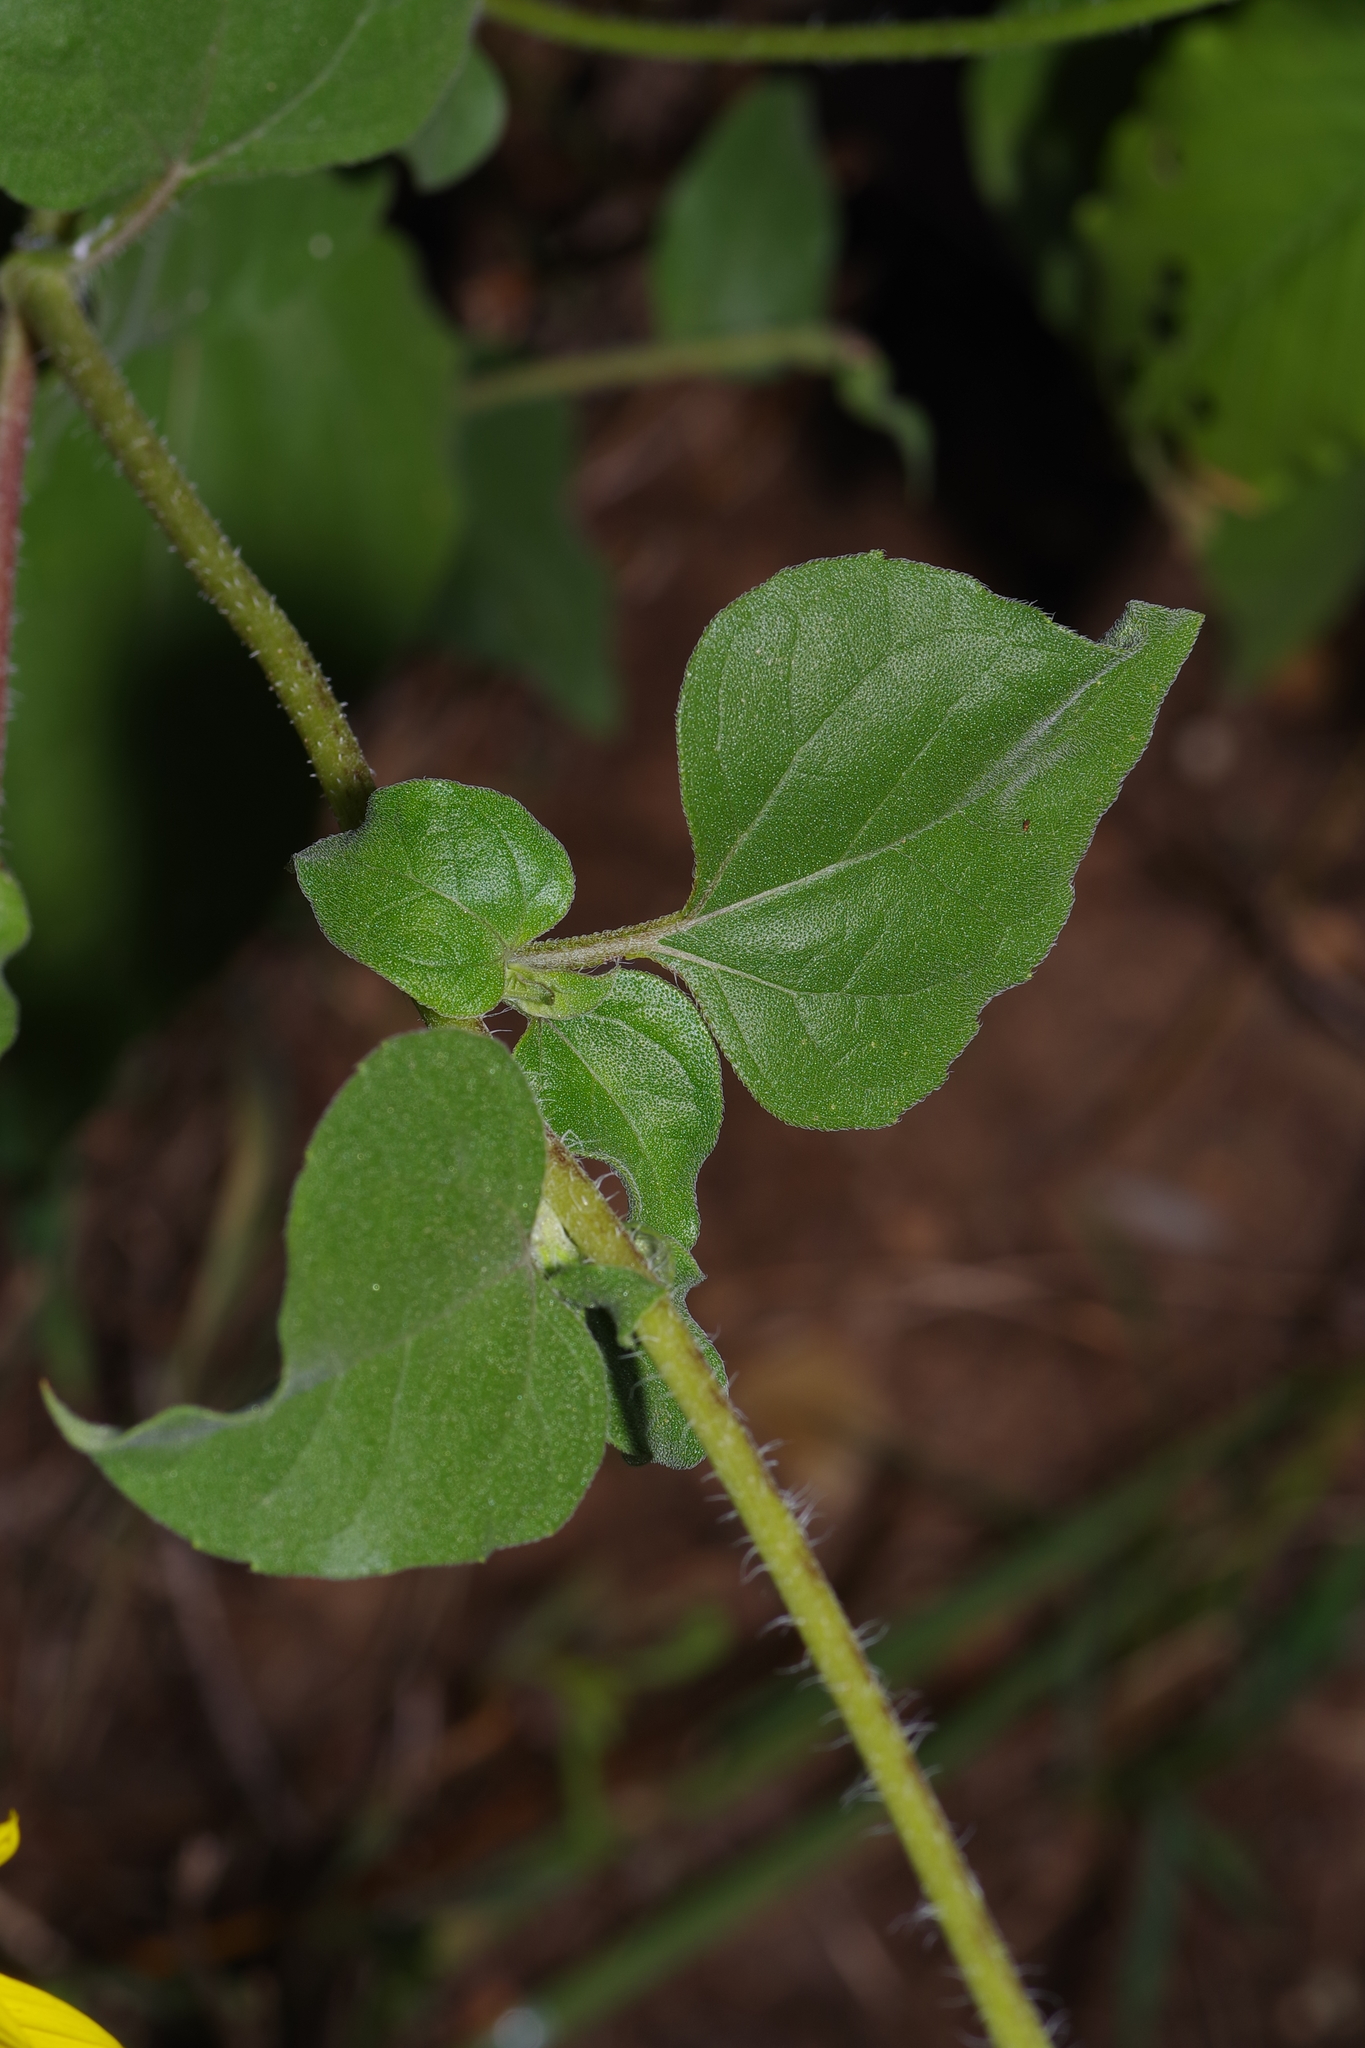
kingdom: Plantae
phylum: Tracheophyta
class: Magnoliopsida
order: Asterales
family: Asteraceae
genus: Helianthus
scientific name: Helianthus annuus
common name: Sunflower
